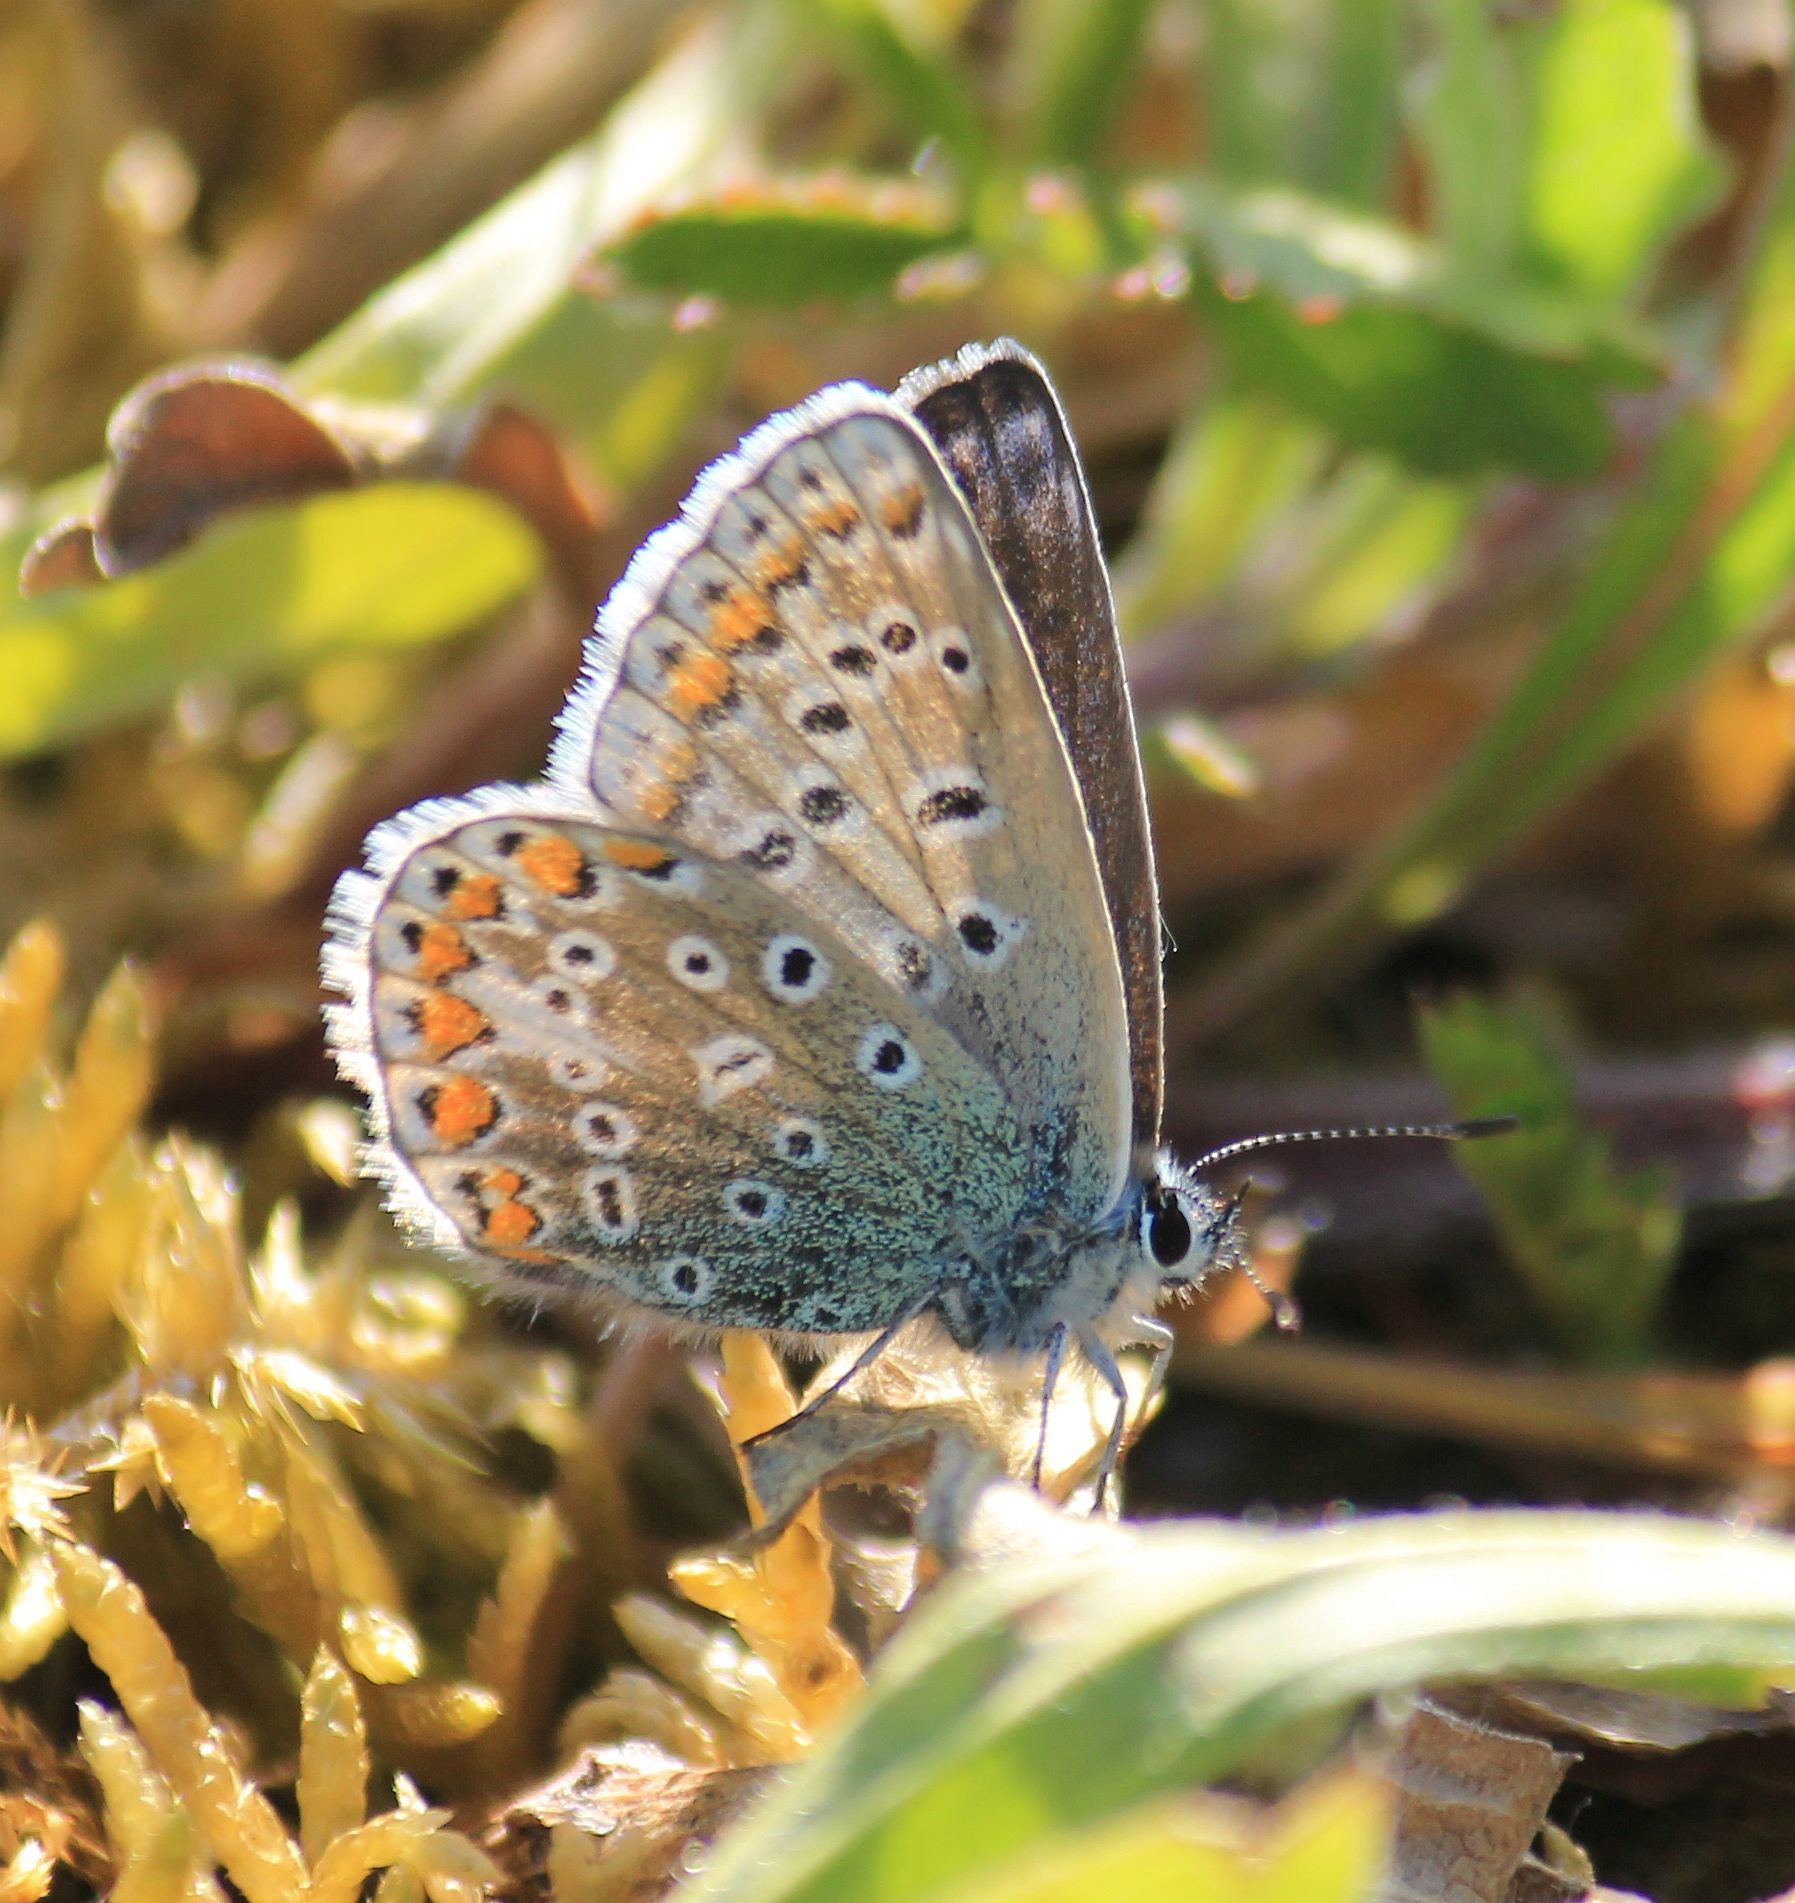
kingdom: Animalia
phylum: Arthropoda
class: Insecta
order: Lepidoptera
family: Lycaenidae
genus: Polyommatus
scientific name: Polyommatus icarus
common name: Common blue
